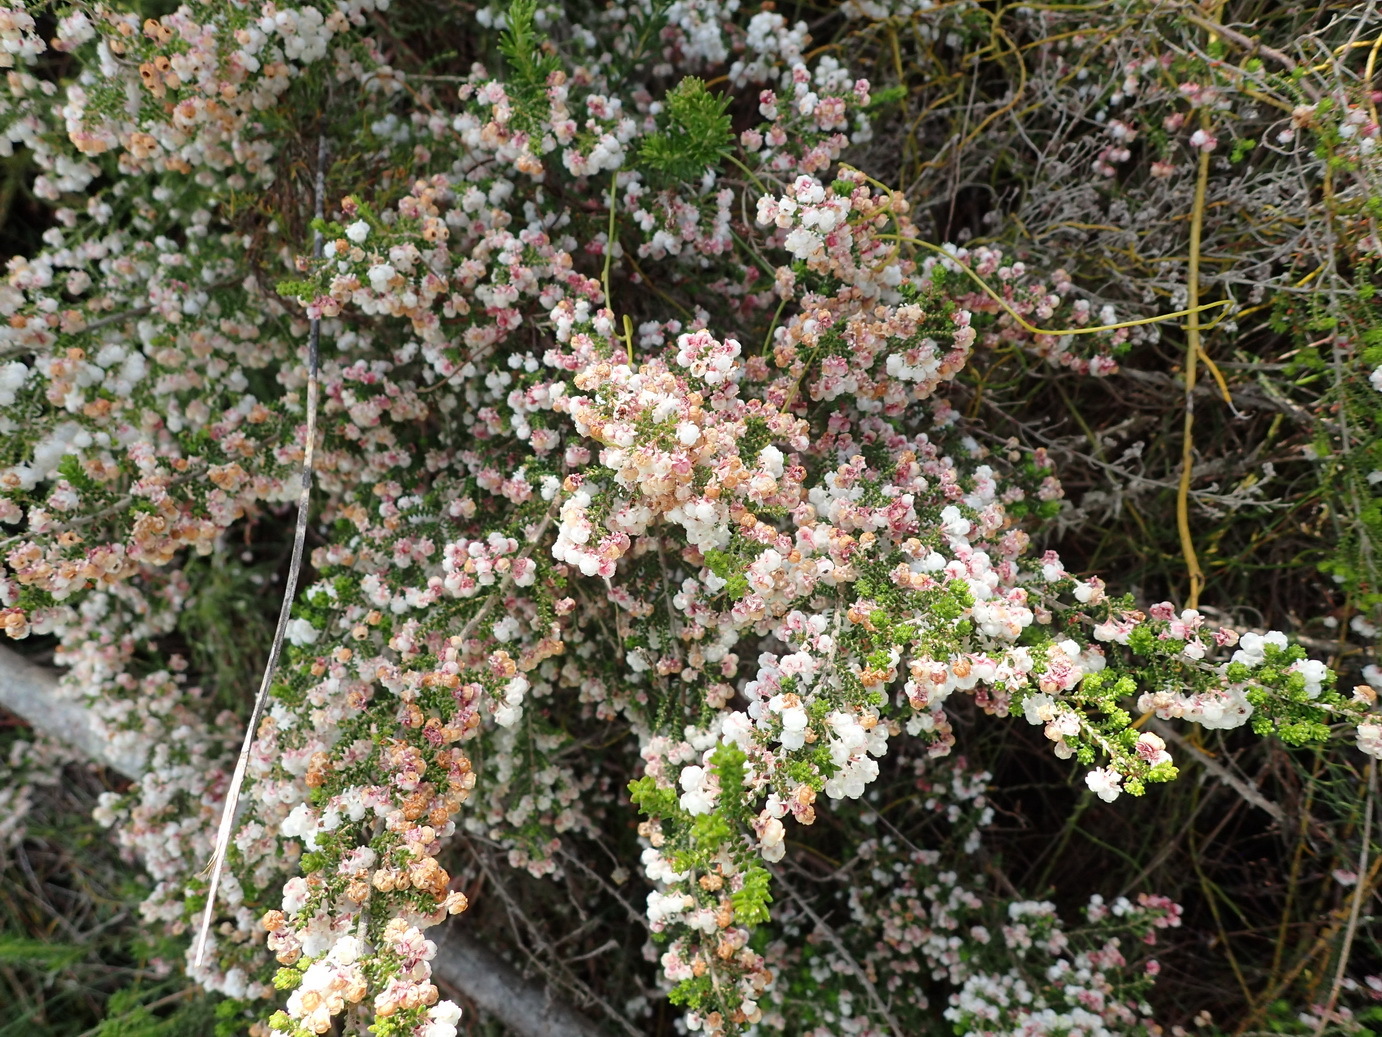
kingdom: Plantae
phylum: Tracheophyta
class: Magnoliopsida
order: Ericales
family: Ericaceae
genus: Erica
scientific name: Erica formosa
